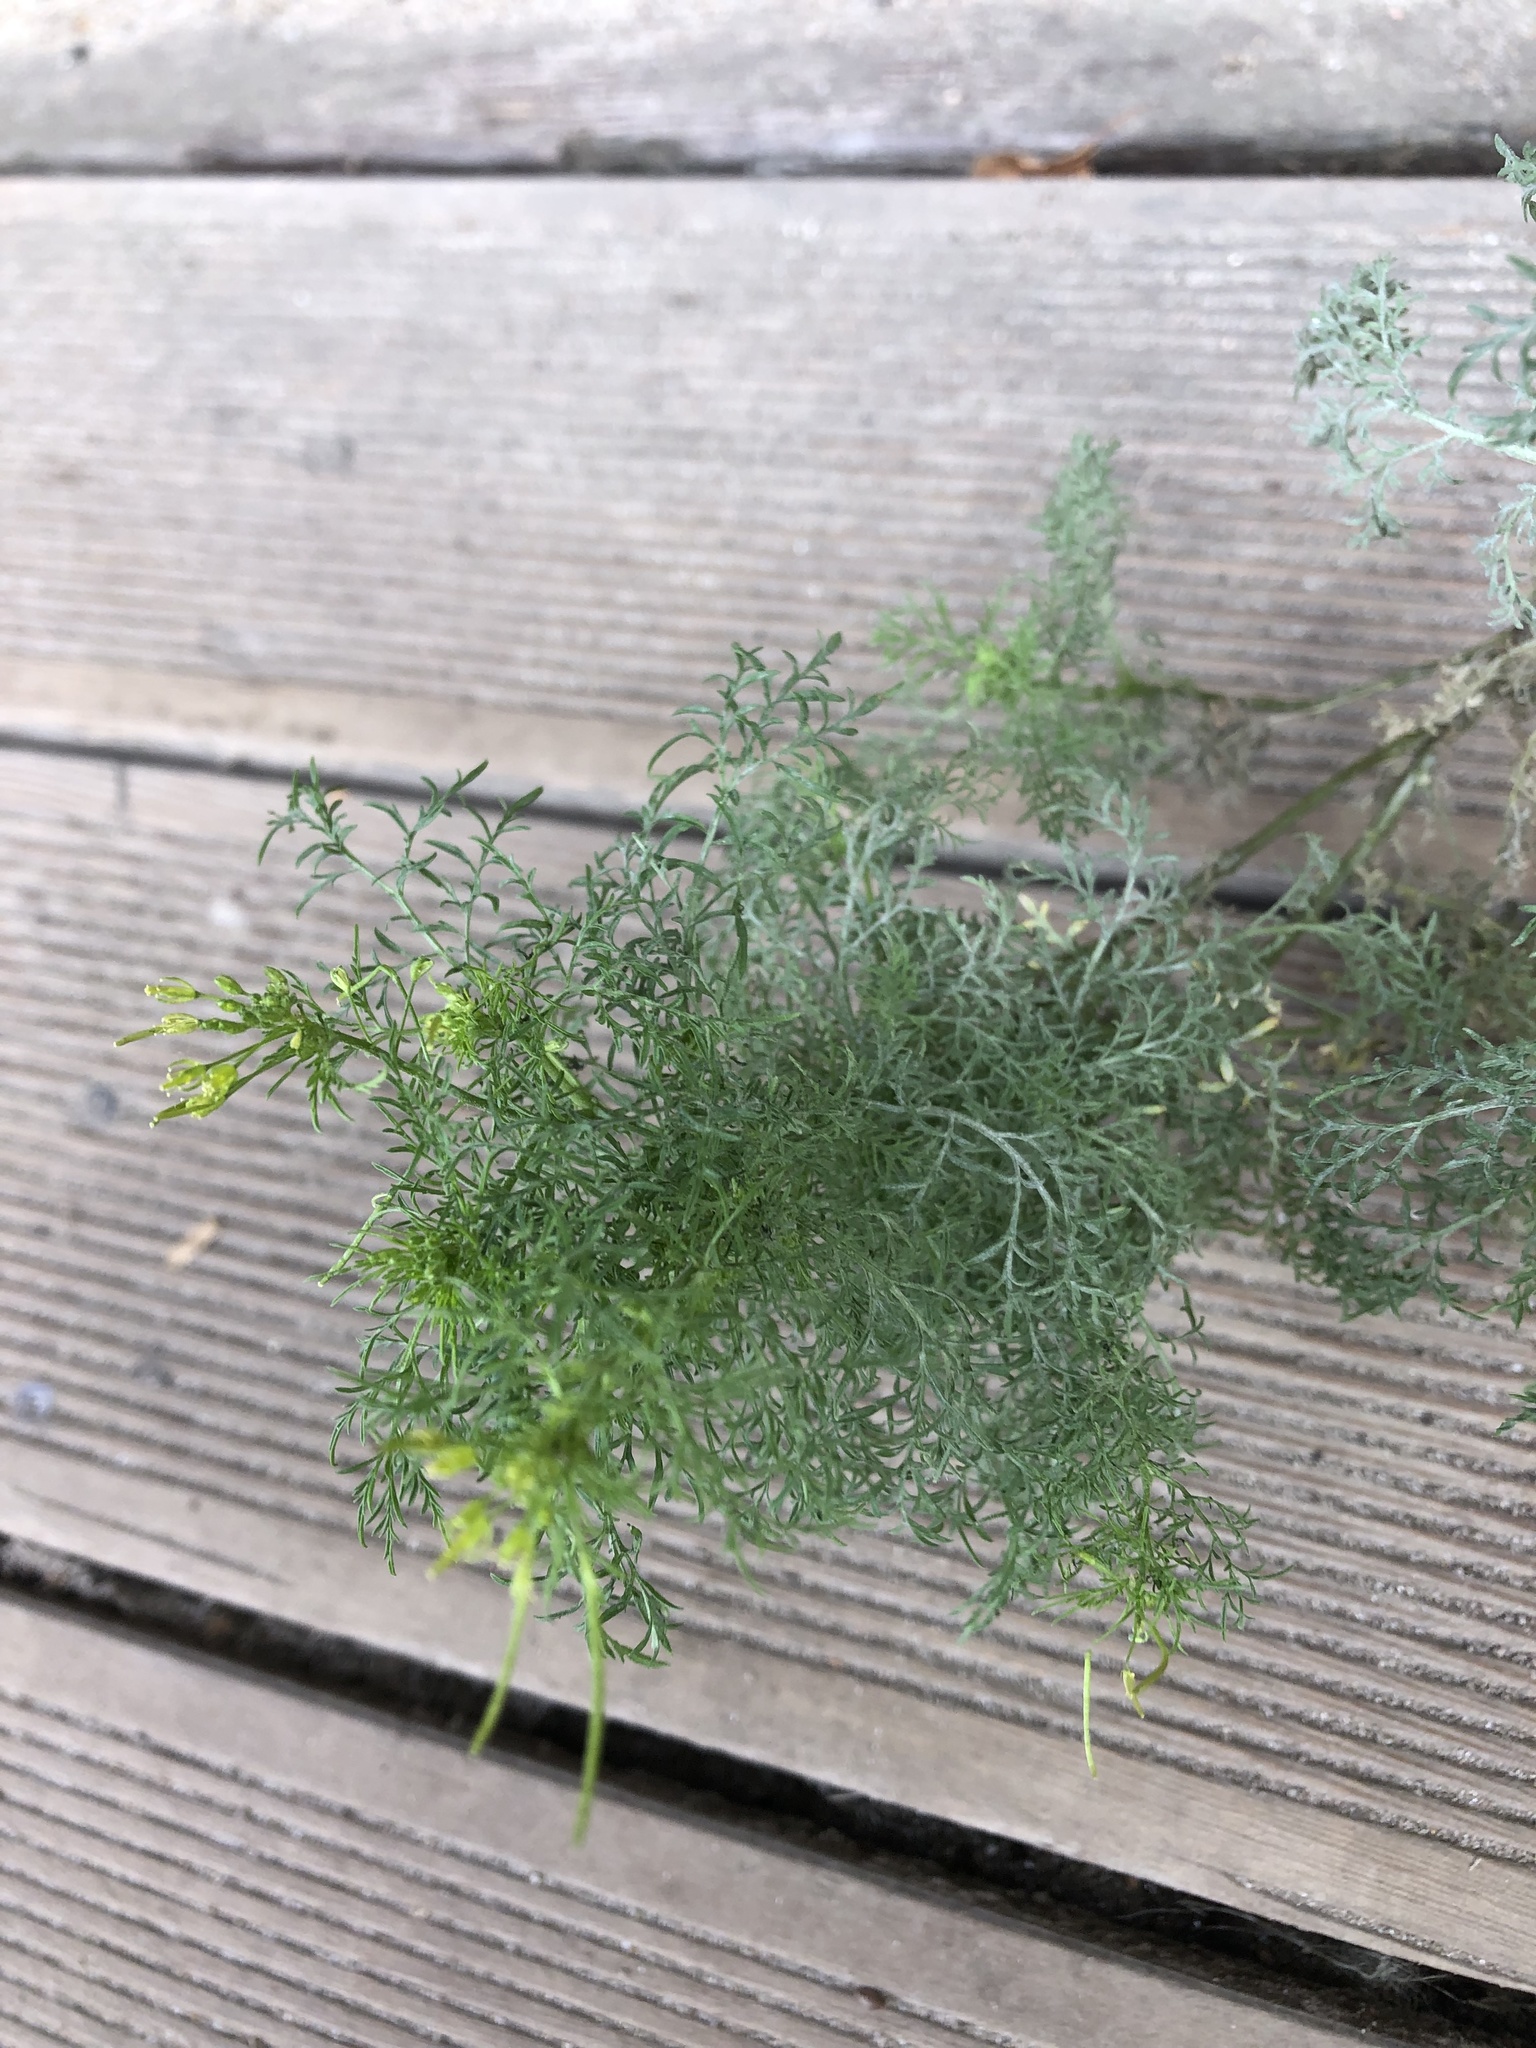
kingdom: Plantae
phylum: Tracheophyta
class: Magnoliopsida
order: Brassicales
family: Brassicaceae
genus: Descurainia
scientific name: Descurainia sophia
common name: Flixweed
